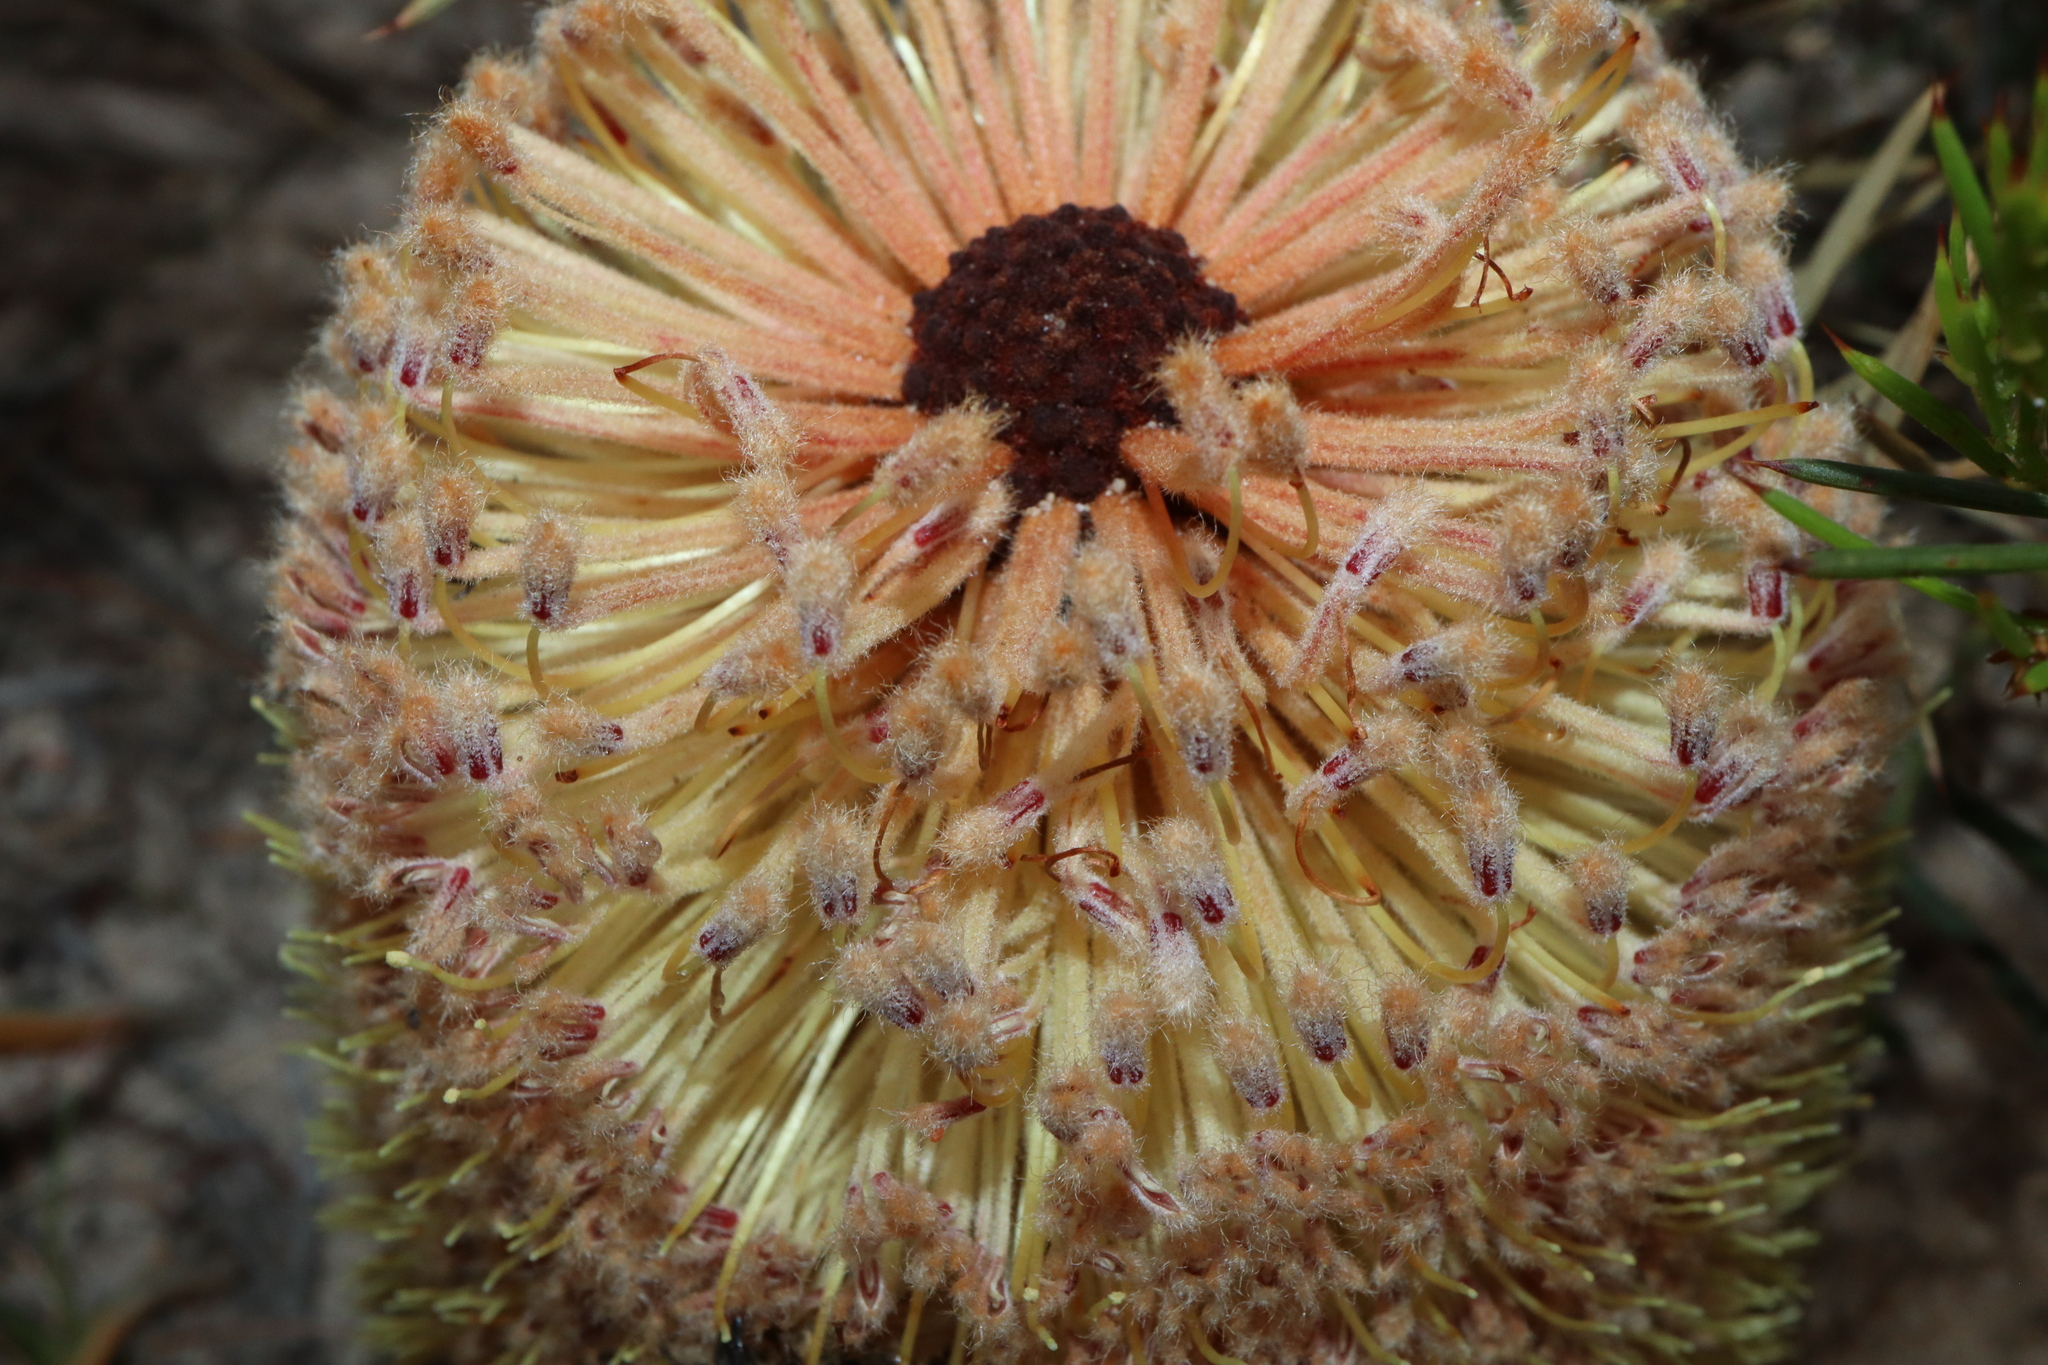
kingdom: Plantae
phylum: Tracheophyta
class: Magnoliopsida
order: Proteales
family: Proteaceae
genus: Banksia
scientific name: Banksia repens
